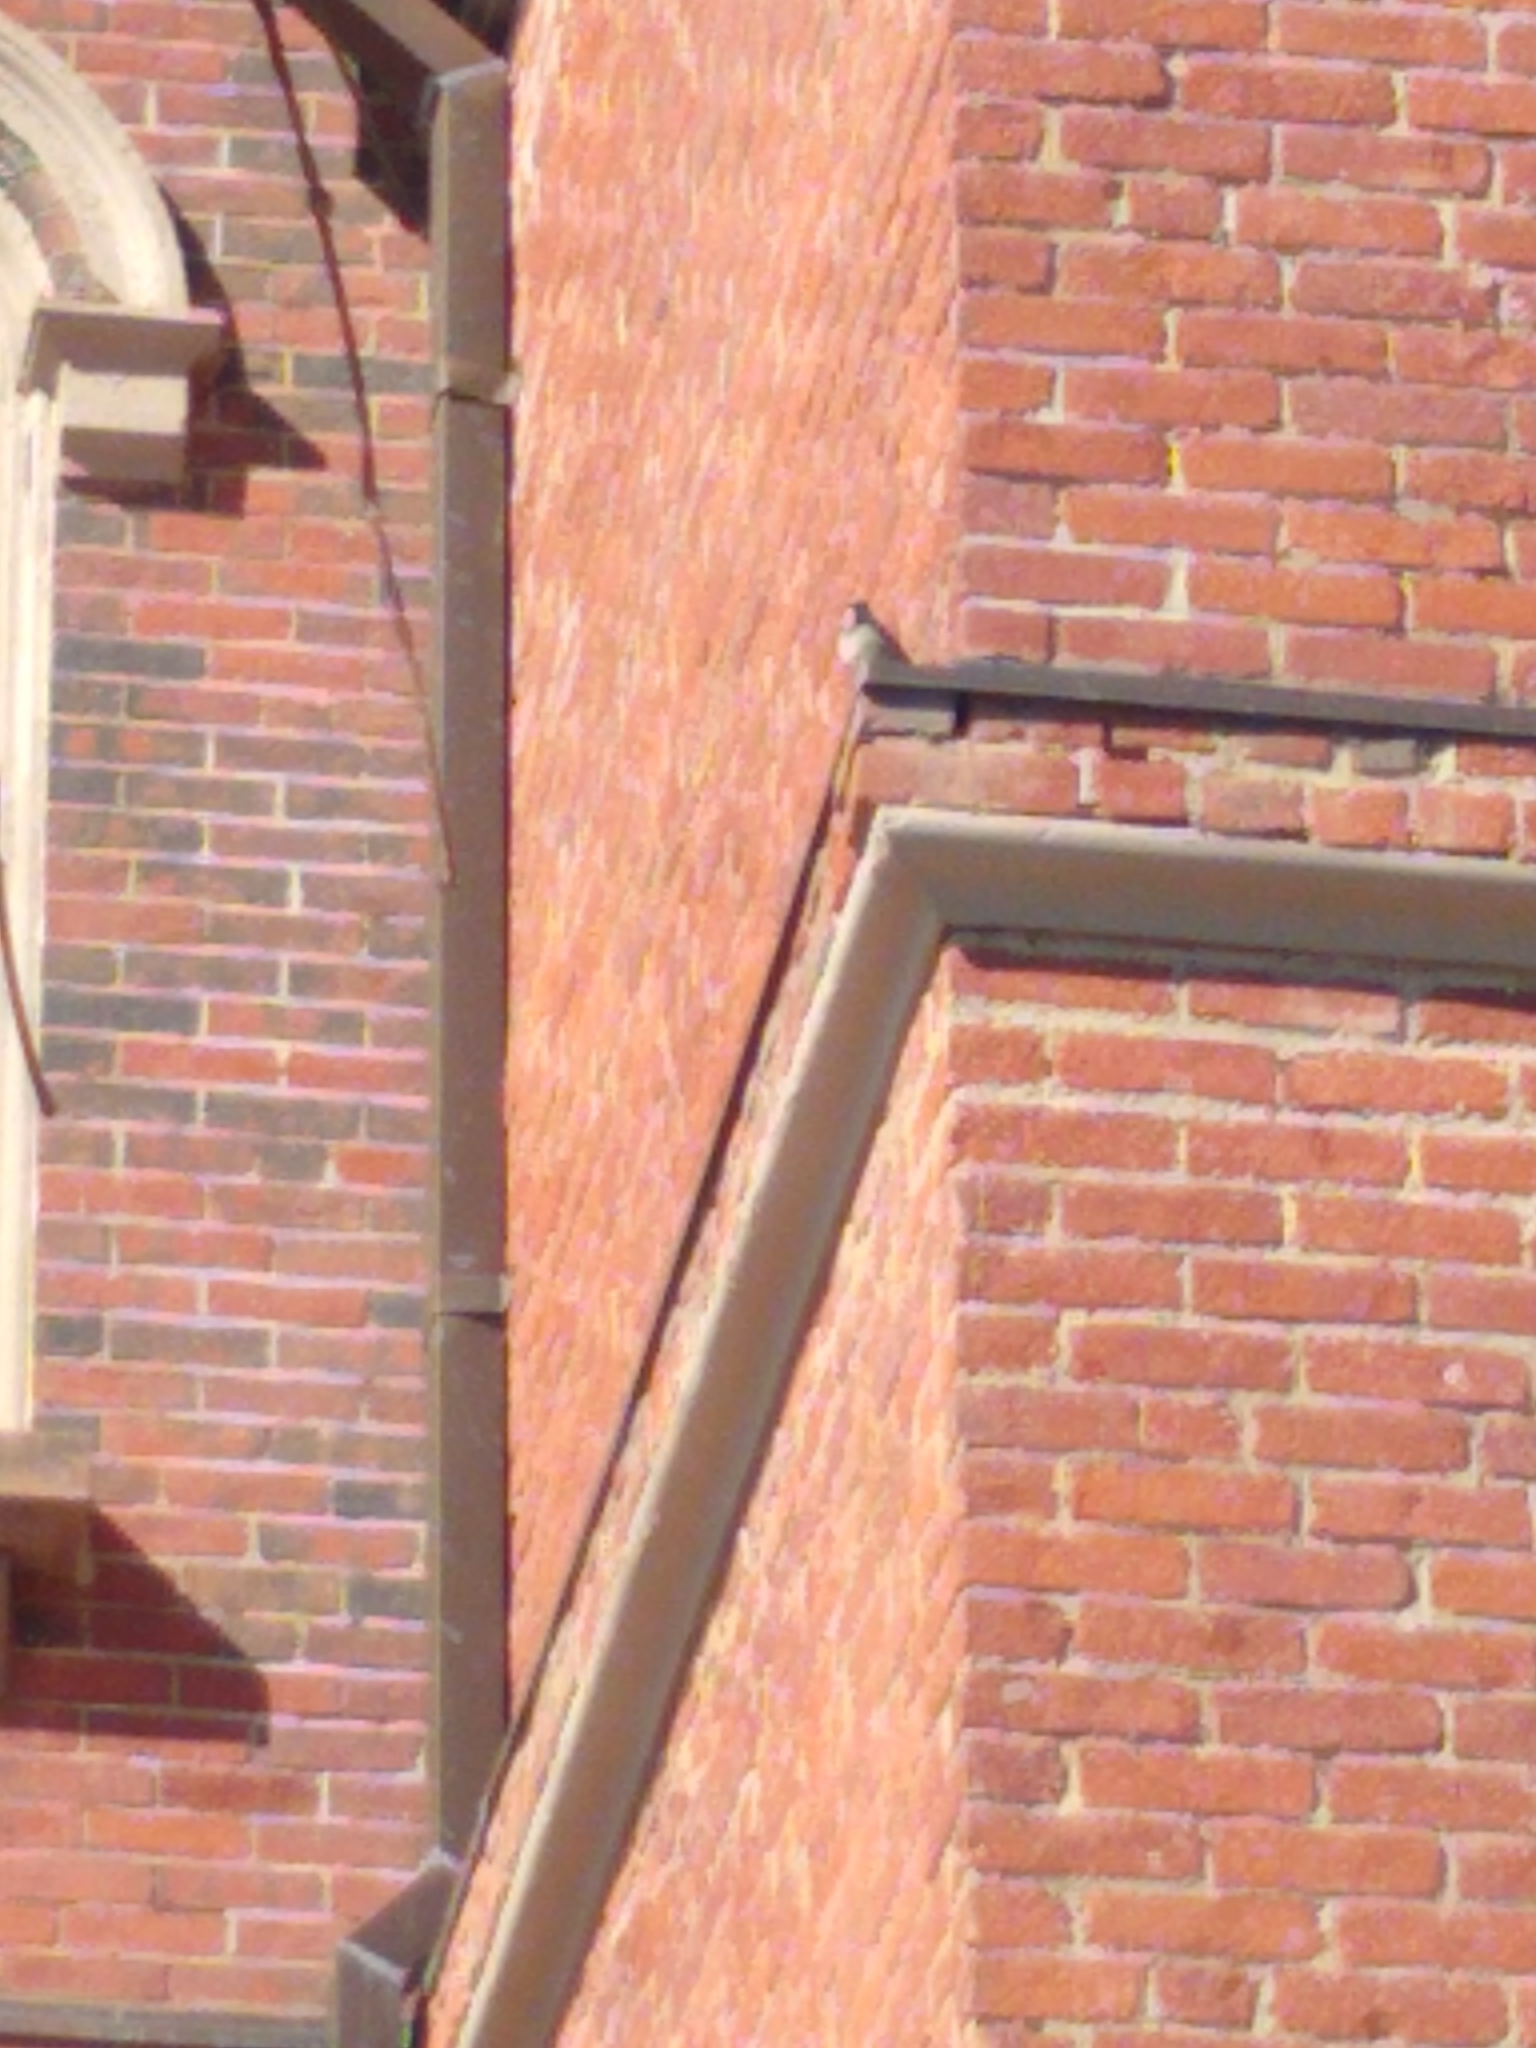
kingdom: Animalia
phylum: Chordata
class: Aves
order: Passeriformes
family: Passeridae
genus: Passer
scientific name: Passer domesticus
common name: House sparrow
